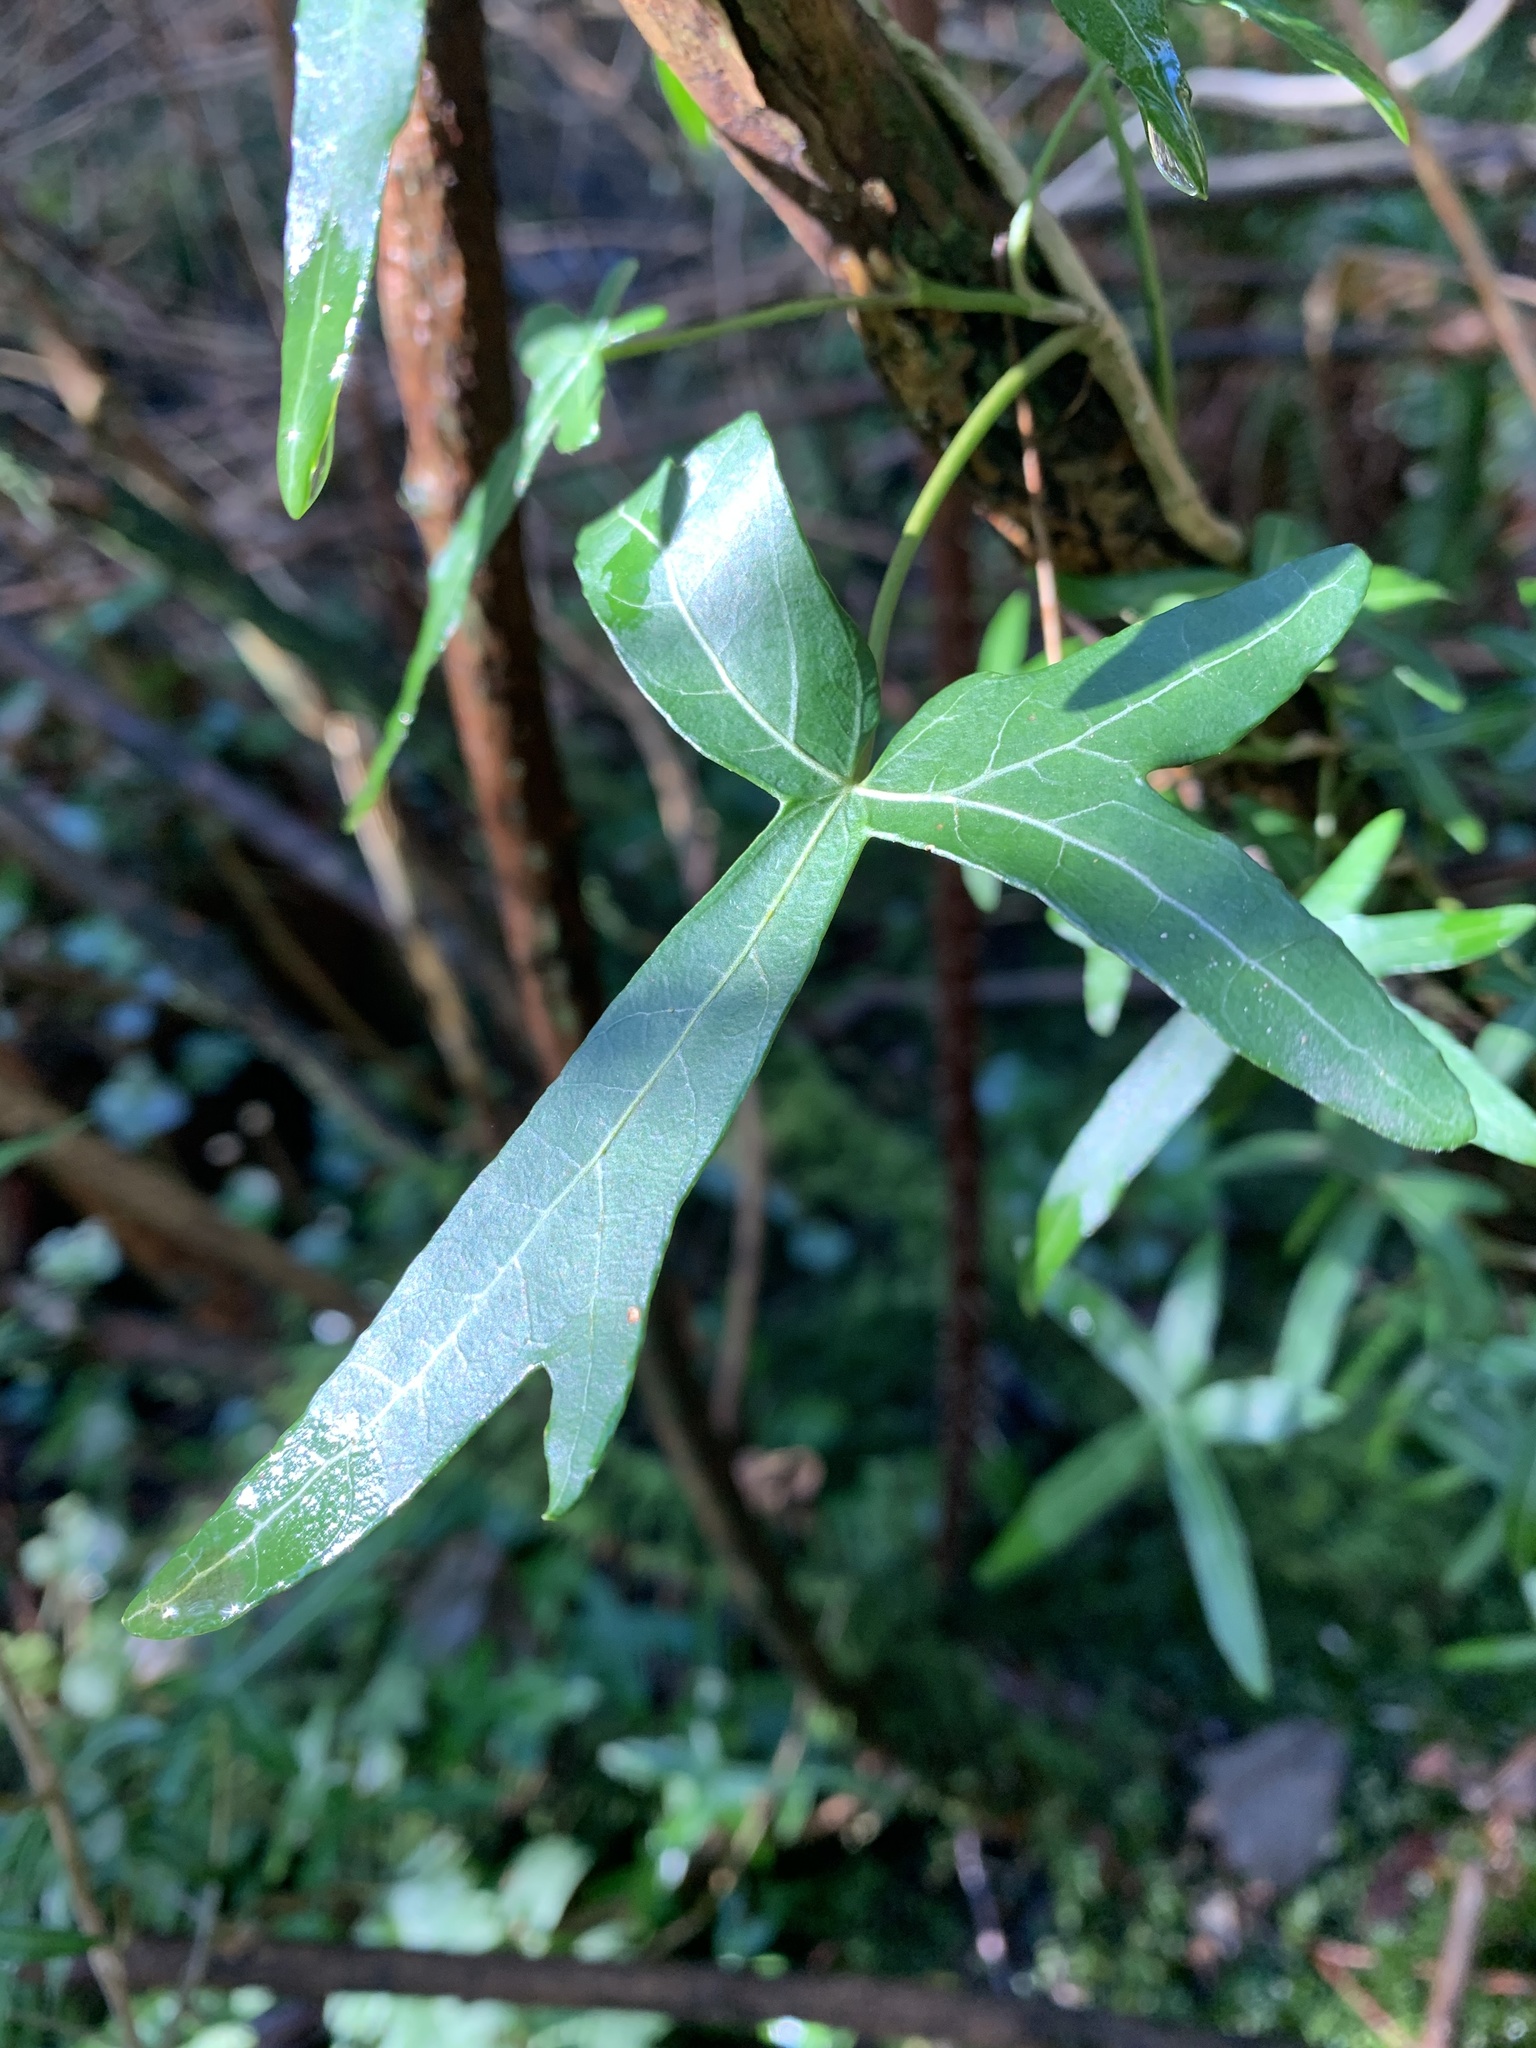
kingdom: Plantae
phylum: Tracheophyta
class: Magnoliopsida
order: Apiales
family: Araliaceae
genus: Hedera
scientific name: Hedera helix
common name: Ivy
